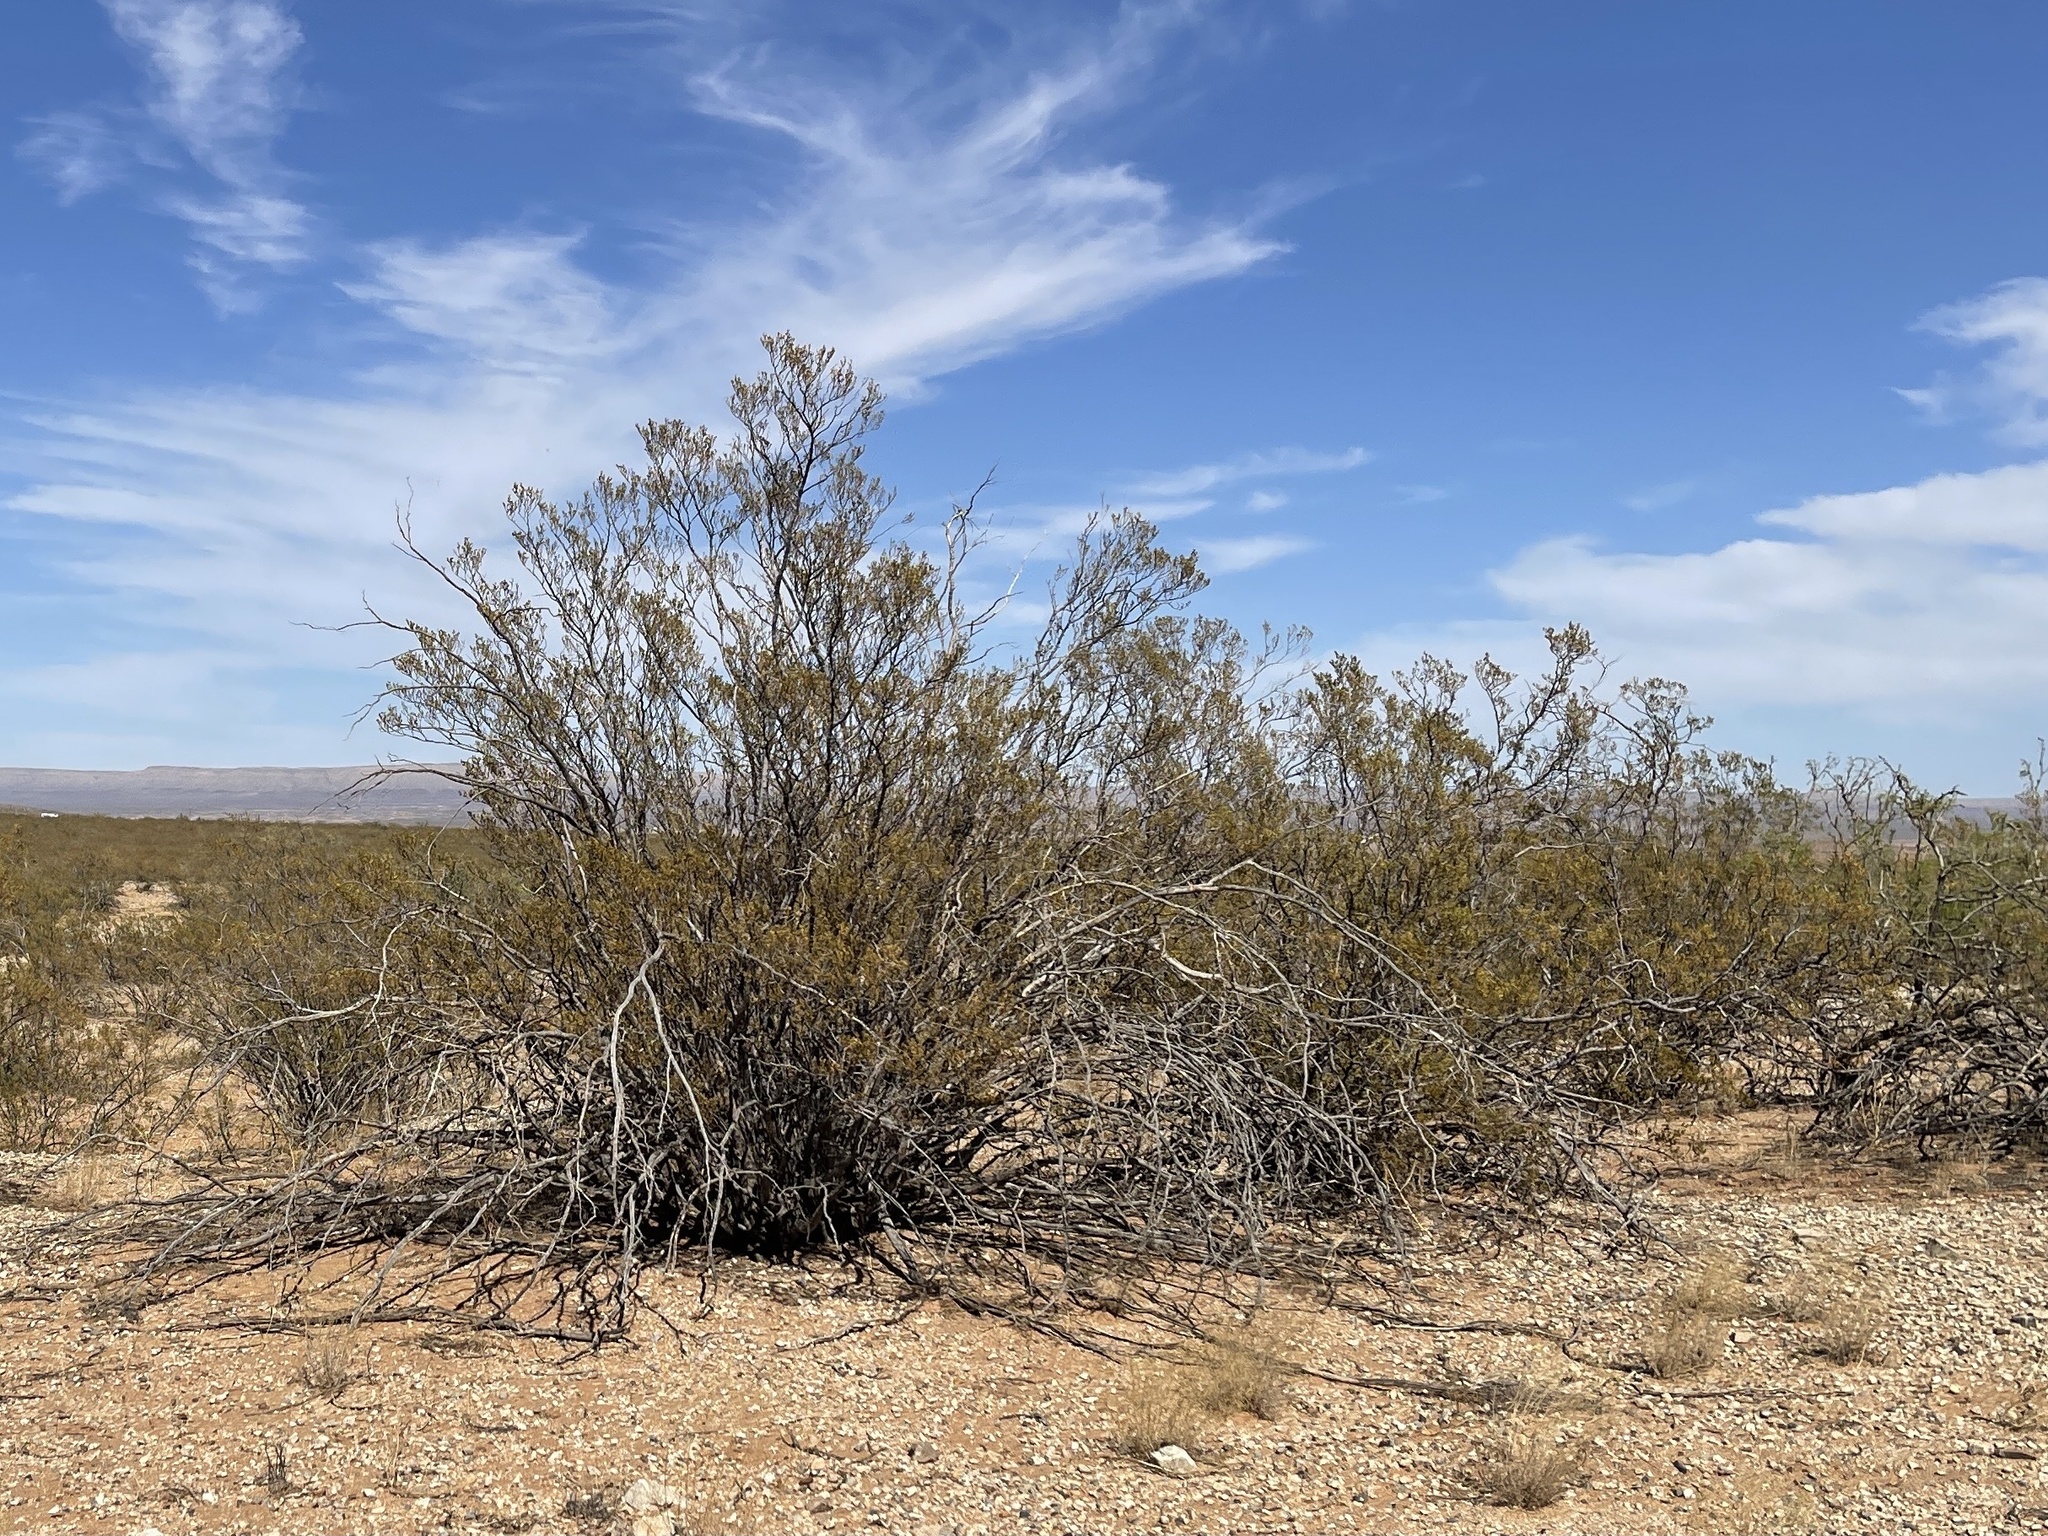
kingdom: Plantae
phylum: Tracheophyta
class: Magnoliopsida
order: Zygophyllales
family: Zygophyllaceae
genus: Larrea
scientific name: Larrea tridentata
